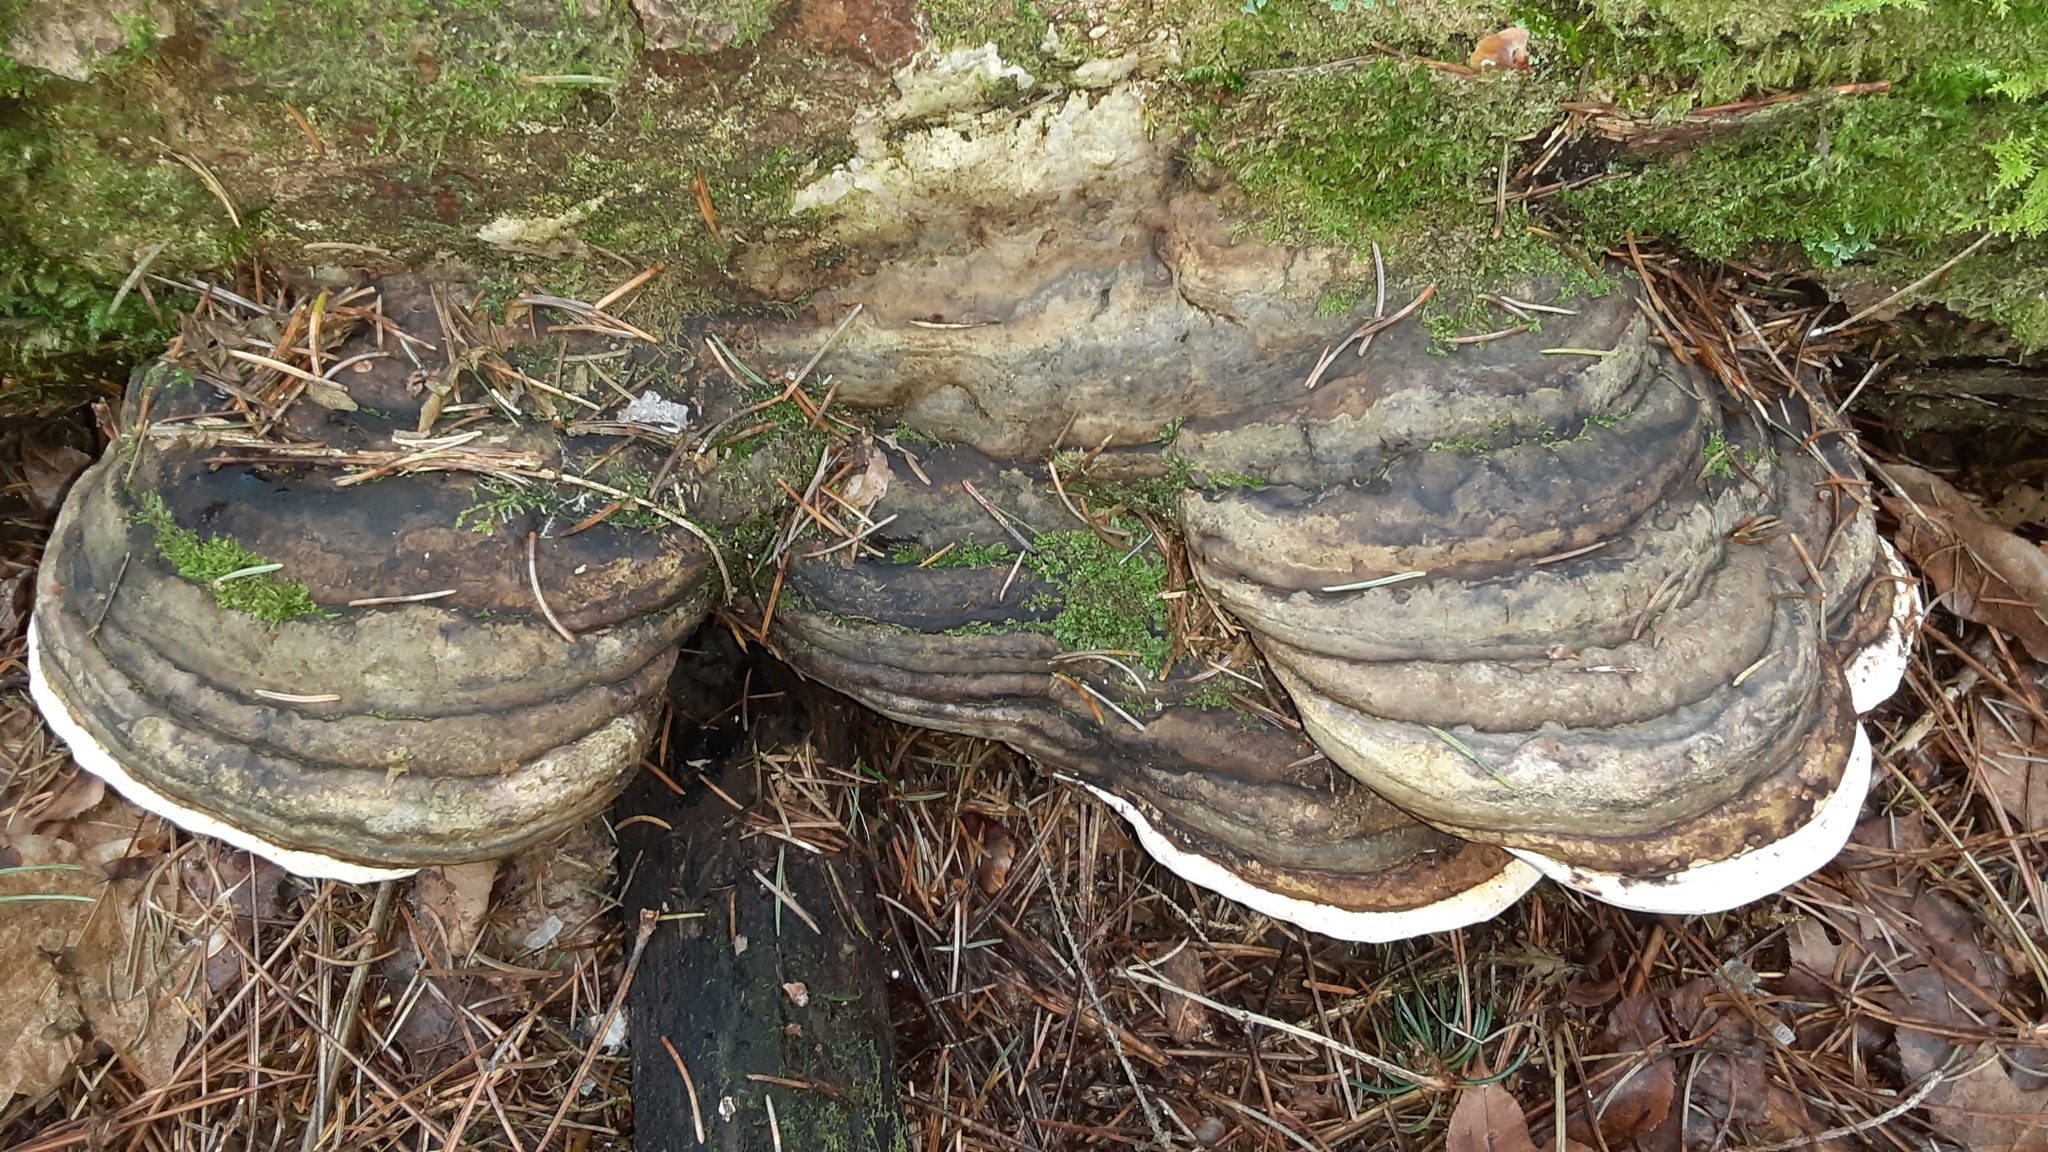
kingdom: Fungi
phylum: Basidiomycota
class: Agaricomycetes
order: Polyporales
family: Fomitopsidaceae
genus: Fomitopsis
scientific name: Fomitopsis ochracea
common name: American brown fomitopsis
